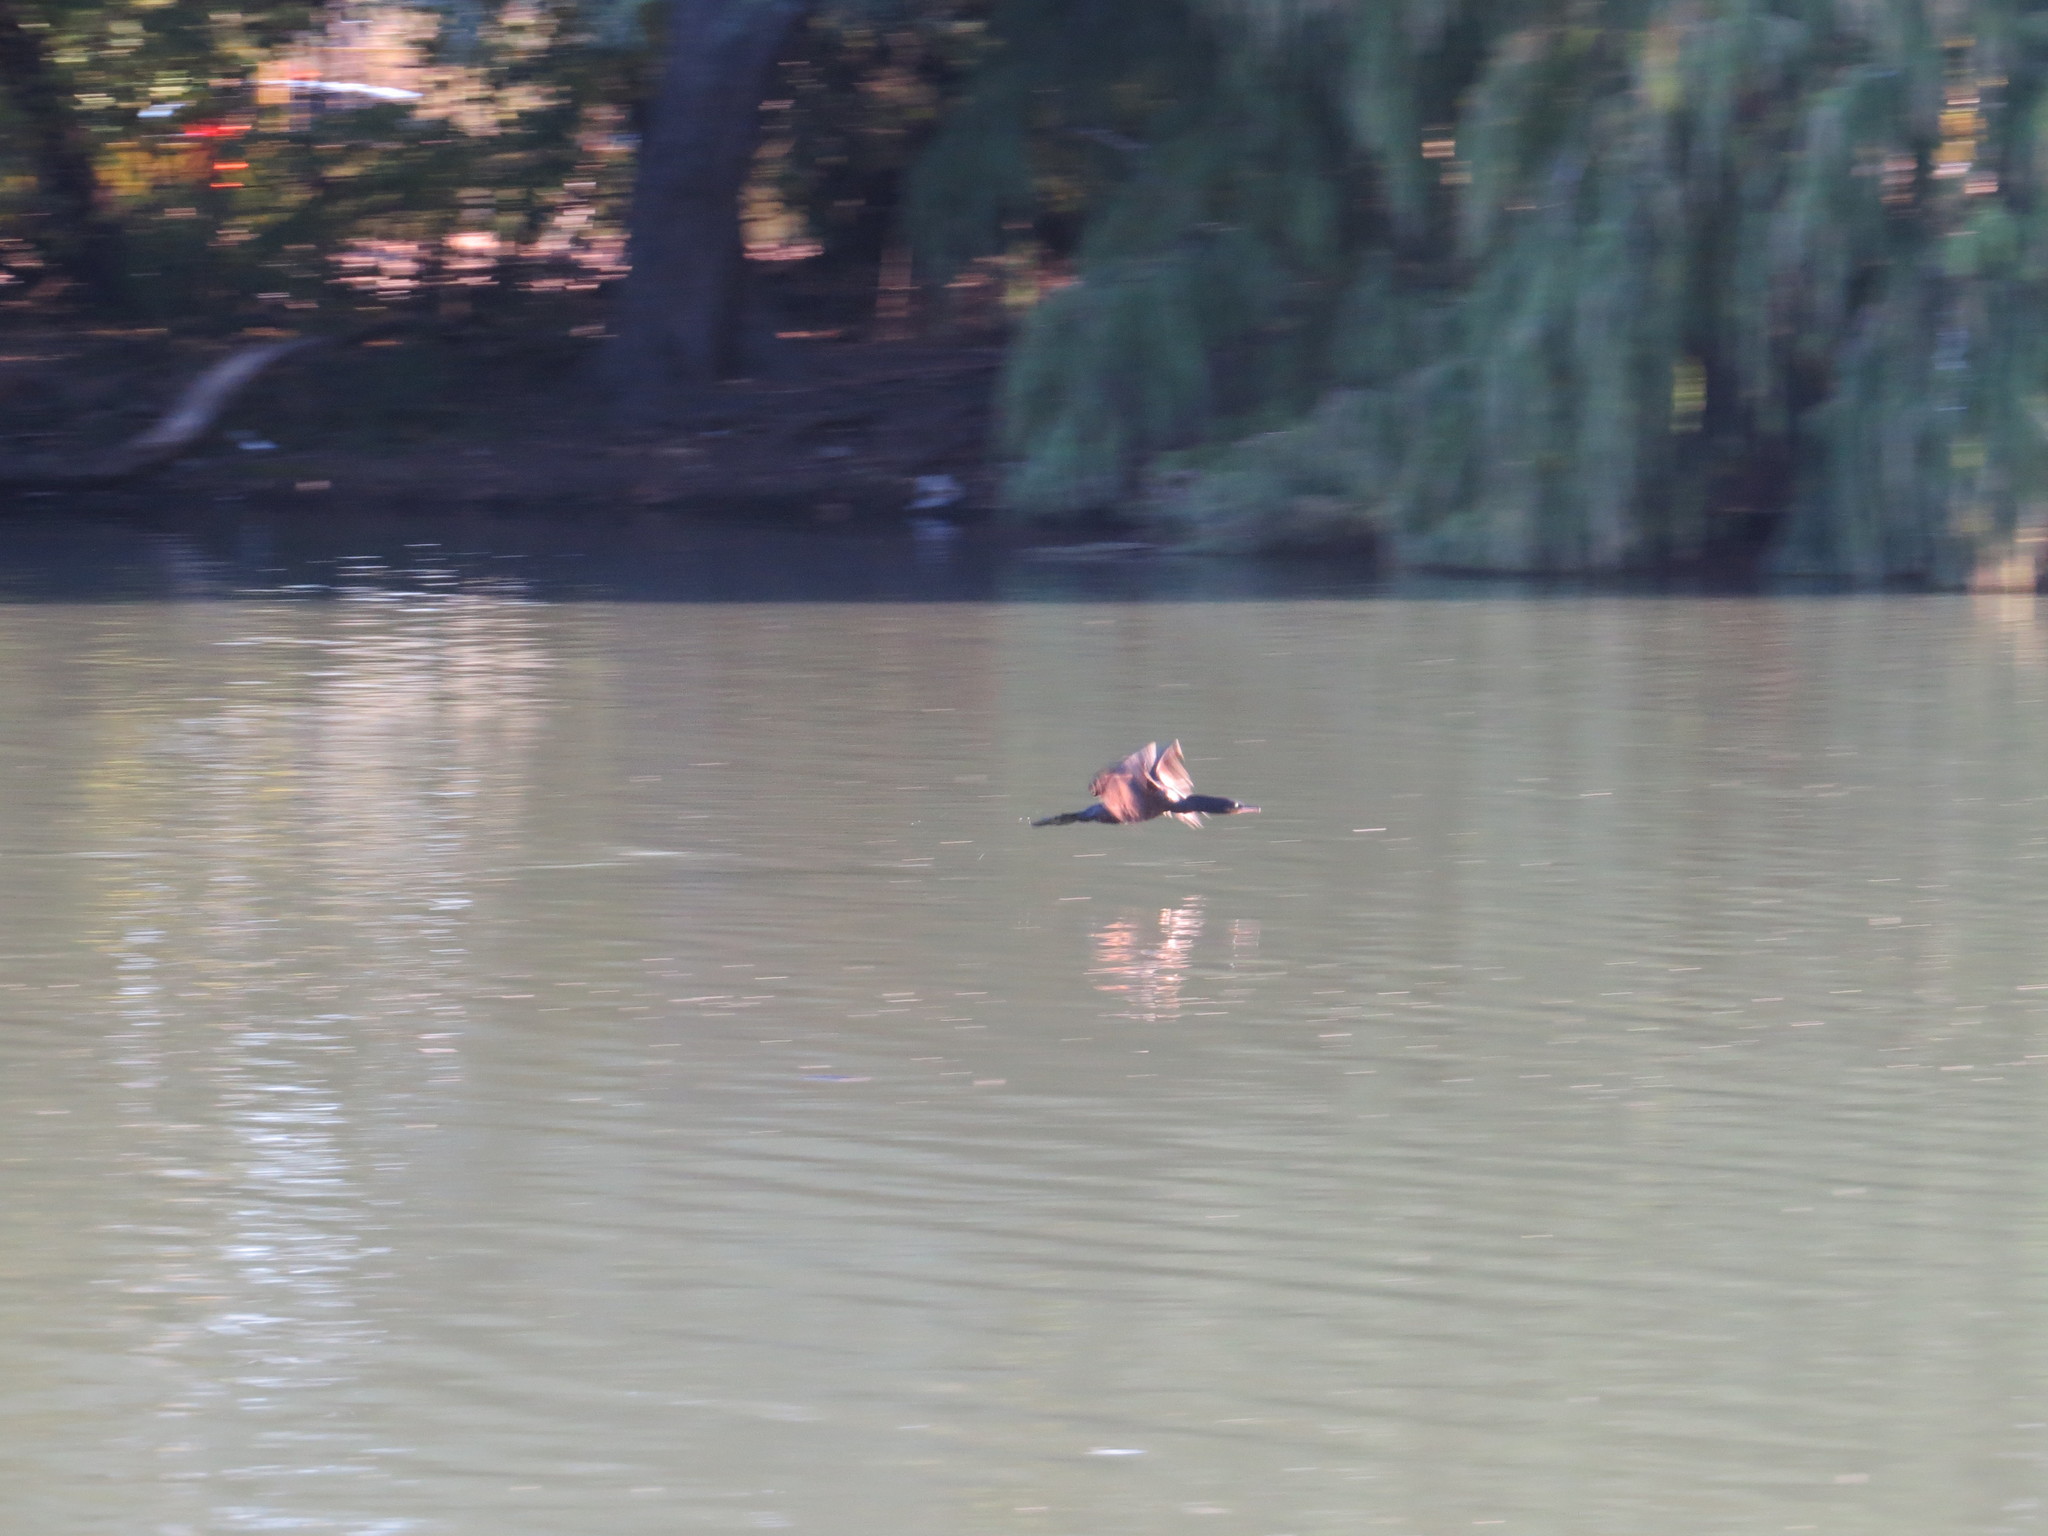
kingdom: Animalia
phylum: Chordata
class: Aves
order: Suliformes
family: Phalacrocoracidae
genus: Phalacrocorax
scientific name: Phalacrocorax brasilianus
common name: Neotropic cormorant
